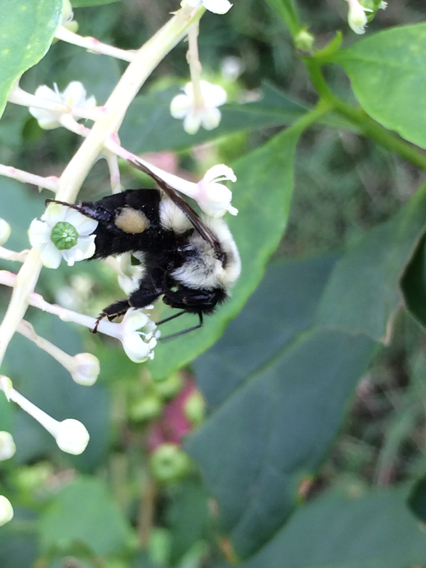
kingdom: Animalia
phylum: Arthropoda
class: Insecta
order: Hymenoptera
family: Apidae
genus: Bombus
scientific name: Bombus impatiens
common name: Common eastern bumble bee
